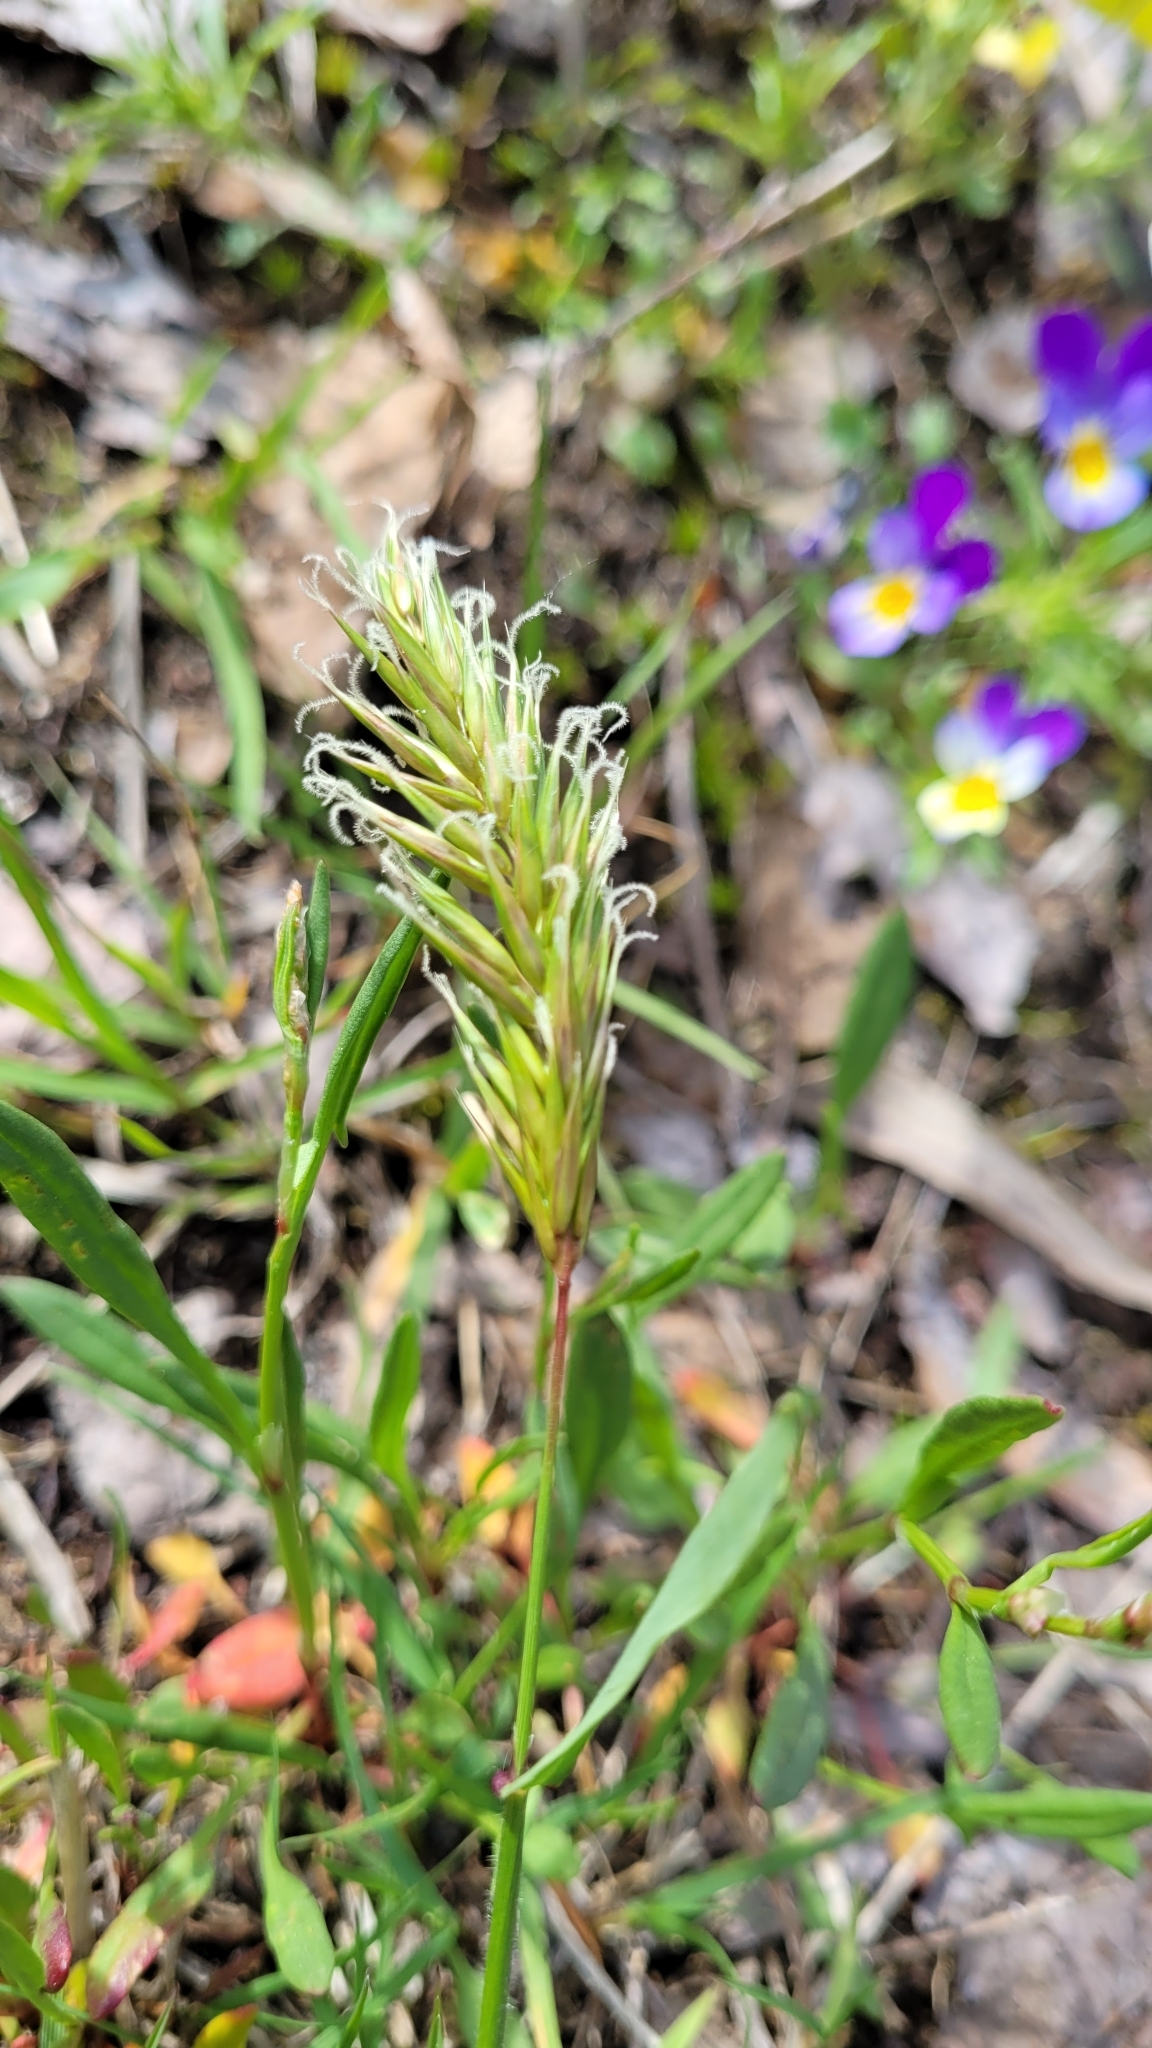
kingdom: Plantae
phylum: Tracheophyta
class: Liliopsida
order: Poales
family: Poaceae
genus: Anthoxanthum
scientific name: Anthoxanthum odoratum
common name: Sweet vernalgrass
